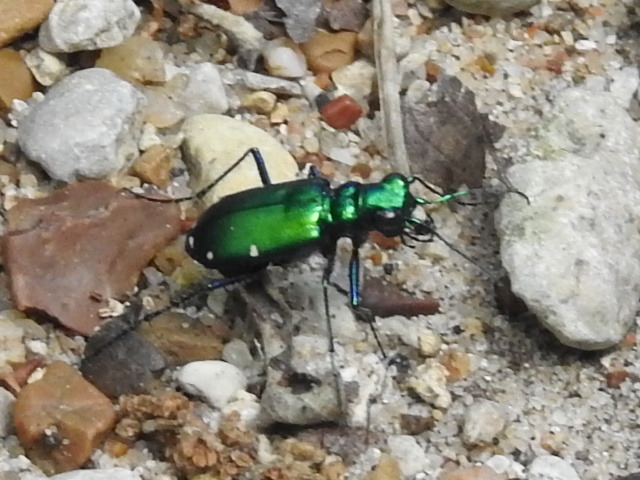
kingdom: Animalia
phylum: Arthropoda
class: Insecta
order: Coleoptera
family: Carabidae
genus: Cicindela
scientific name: Cicindela sexguttata
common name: Six-spotted tiger beetle
